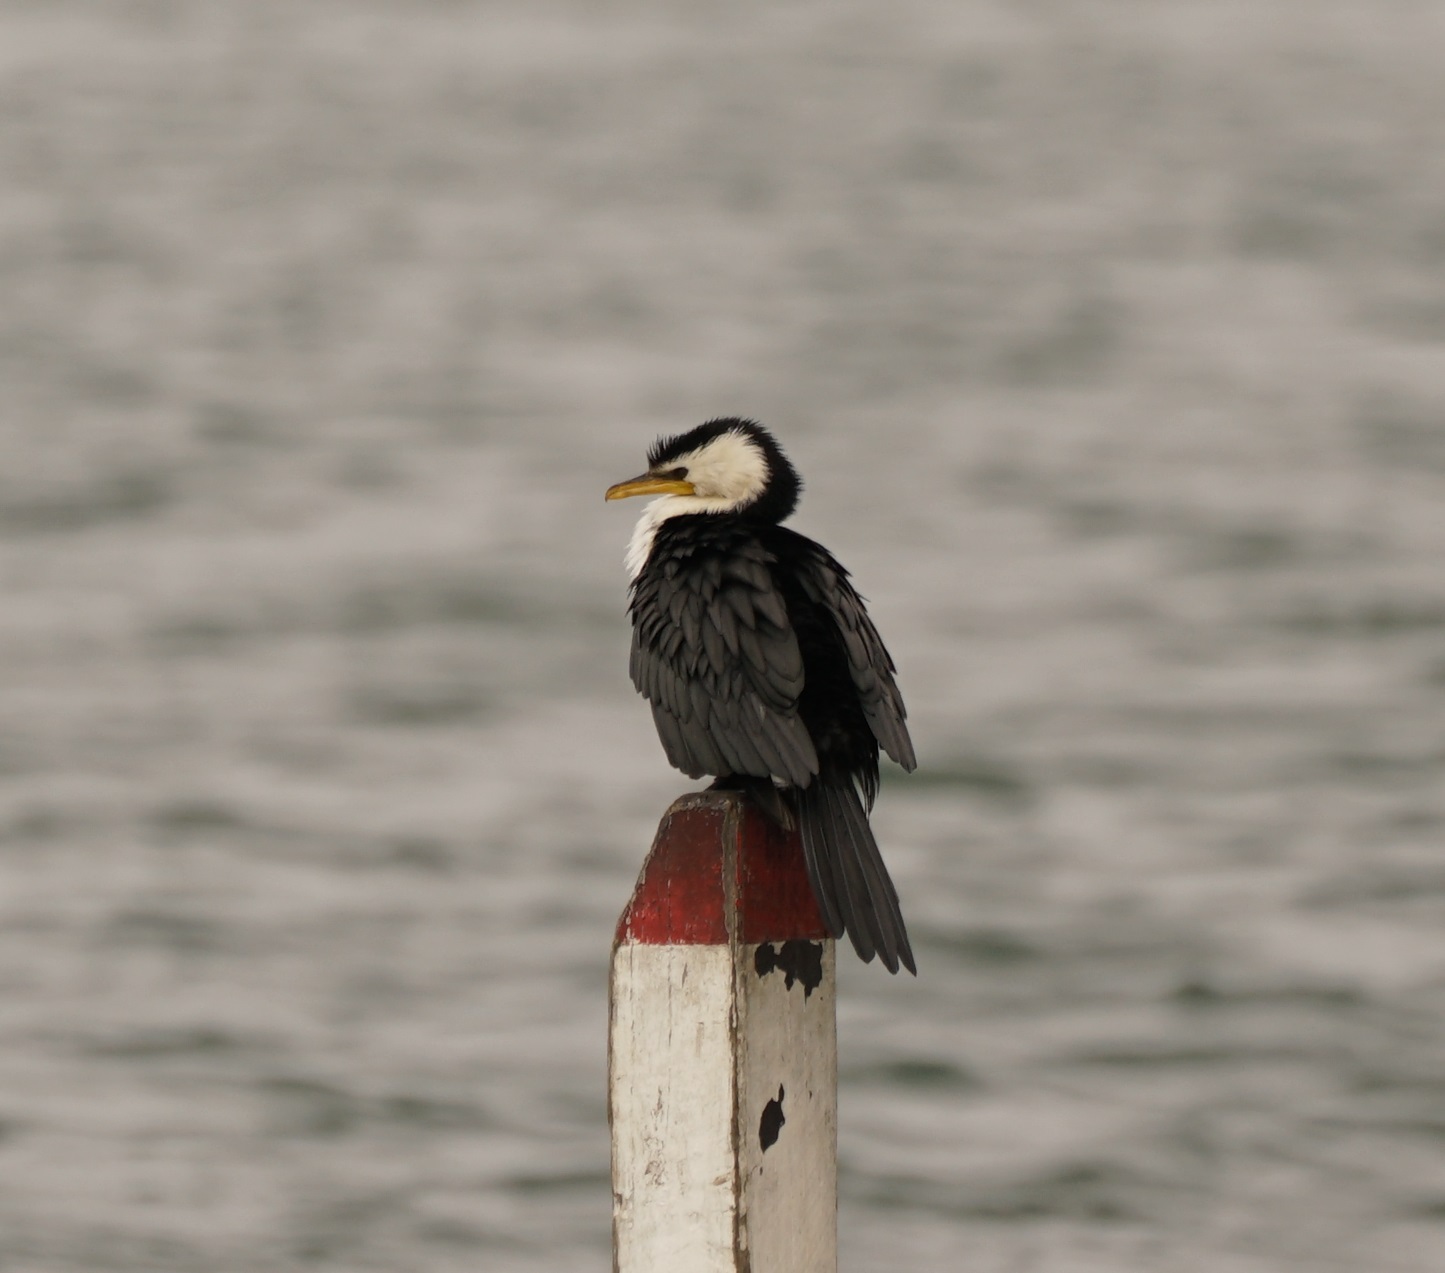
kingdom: Animalia
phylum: Chordata
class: Aves
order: Suliformes
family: Phalacrocoracidae
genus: Microcarbo
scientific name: Microcarbo melanoleucos
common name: Little pied cormorant
